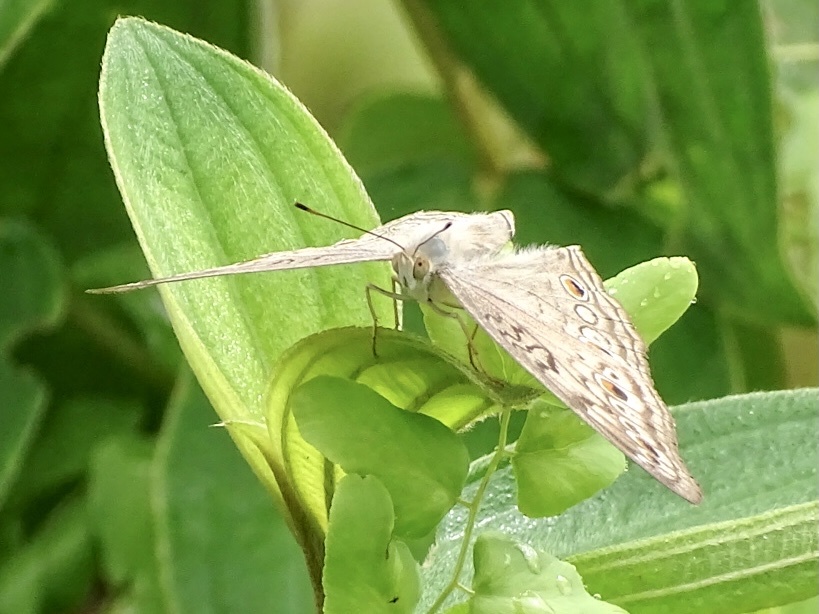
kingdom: Animalia
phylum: Arthropoda
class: Insecta
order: Lepidoptera
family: Nymphalidae
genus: Junonia
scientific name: Junonia atlites
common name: Grey pansy
